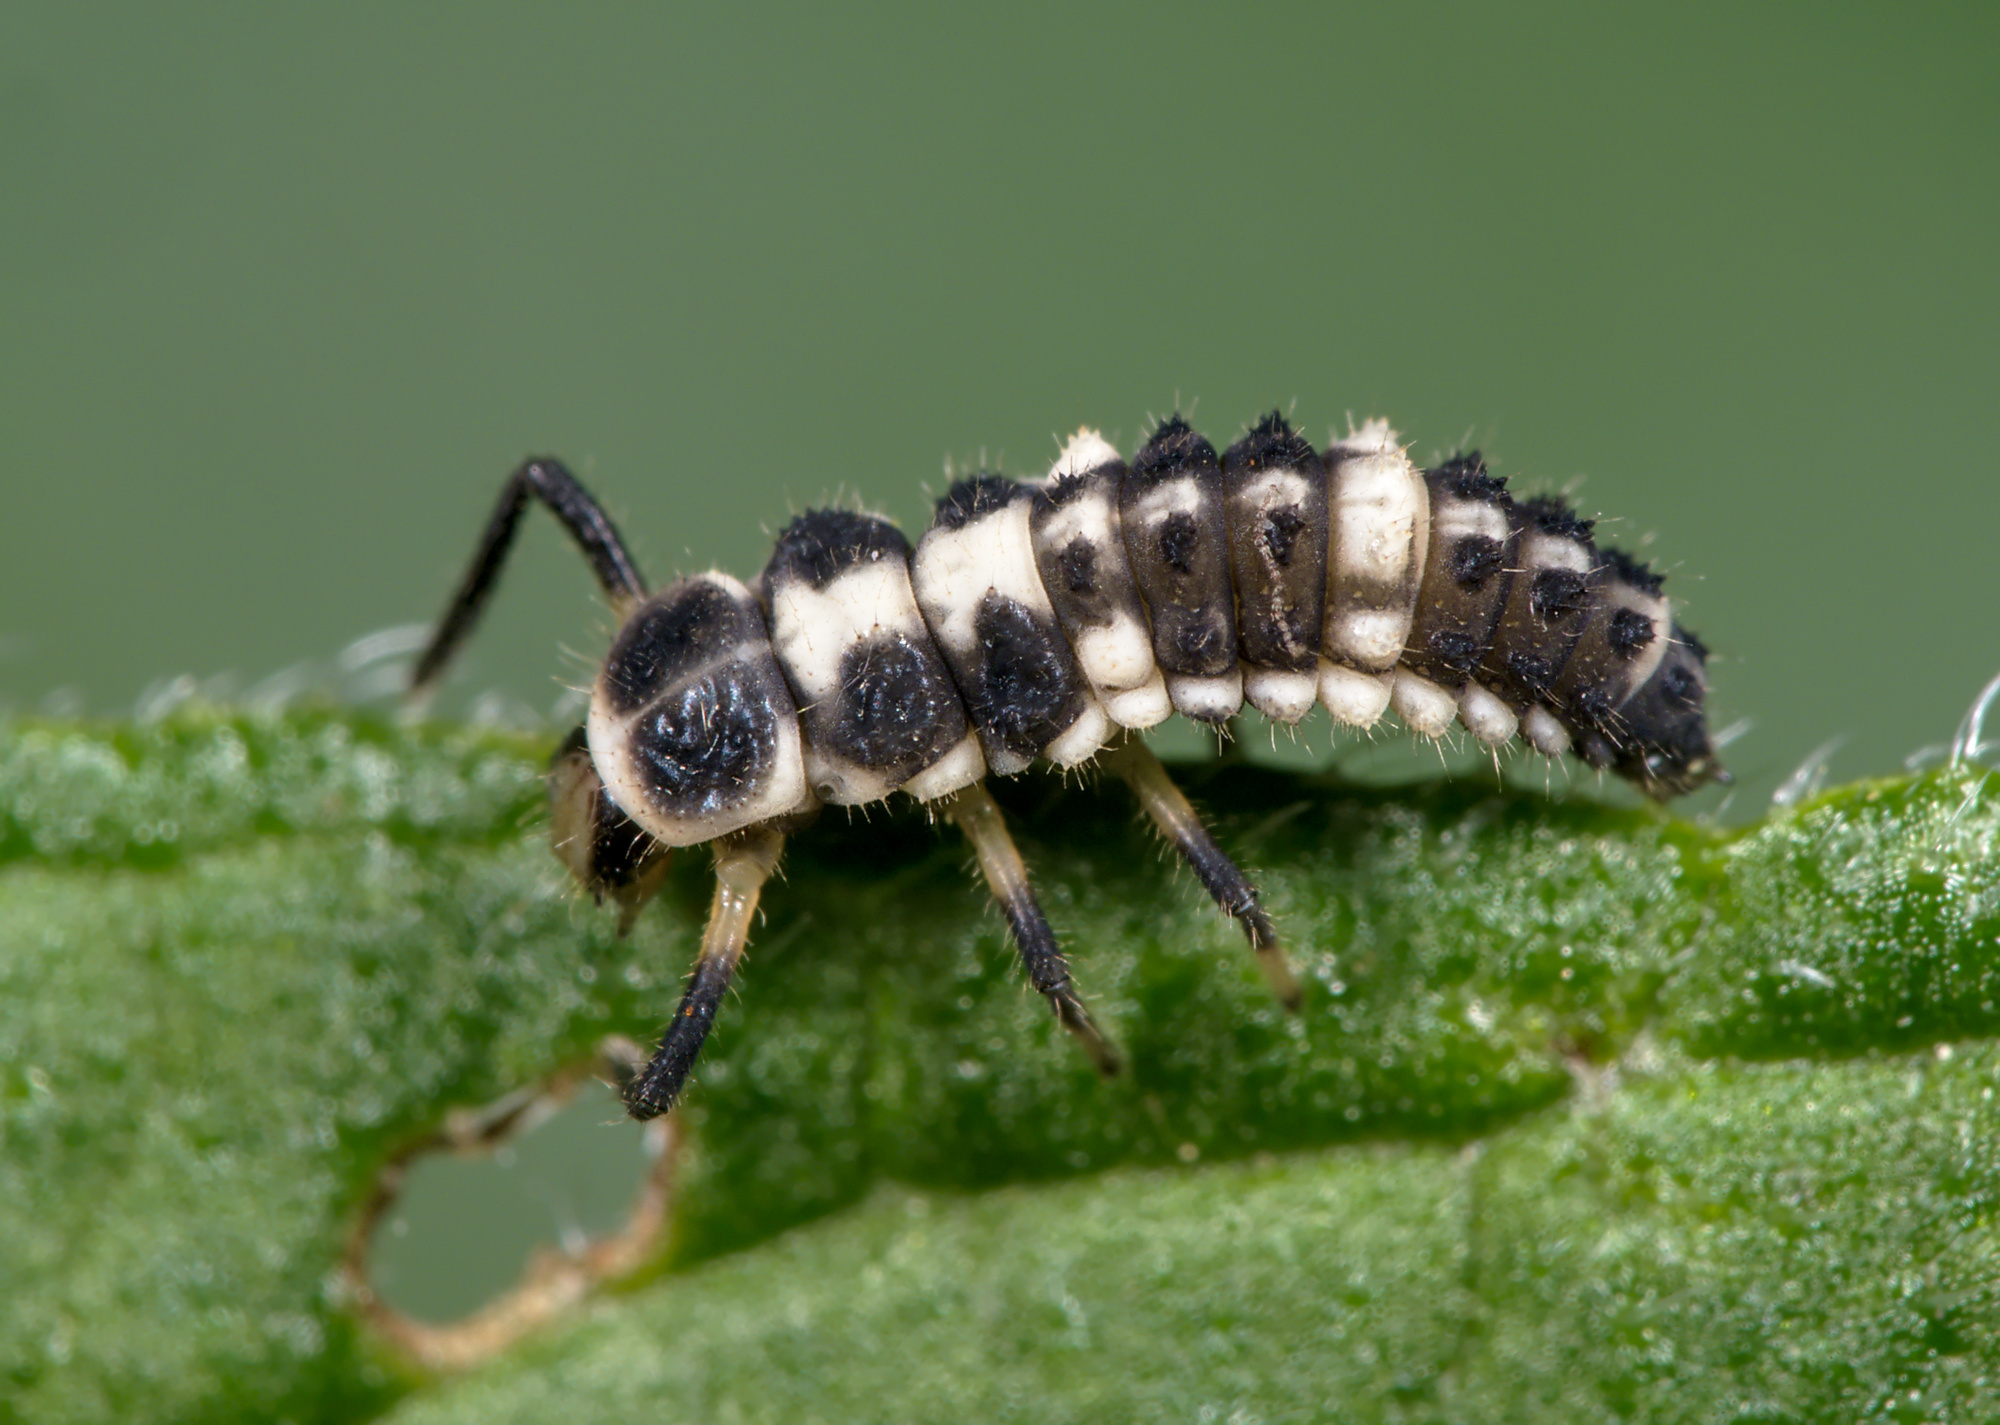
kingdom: Animalia
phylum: Arthropoda
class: Insecta
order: Coleoptera
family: Coccinellidae
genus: Propylaea
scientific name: Propylaea quatuordecimpunctata
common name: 14-spotted ladybird beetle
